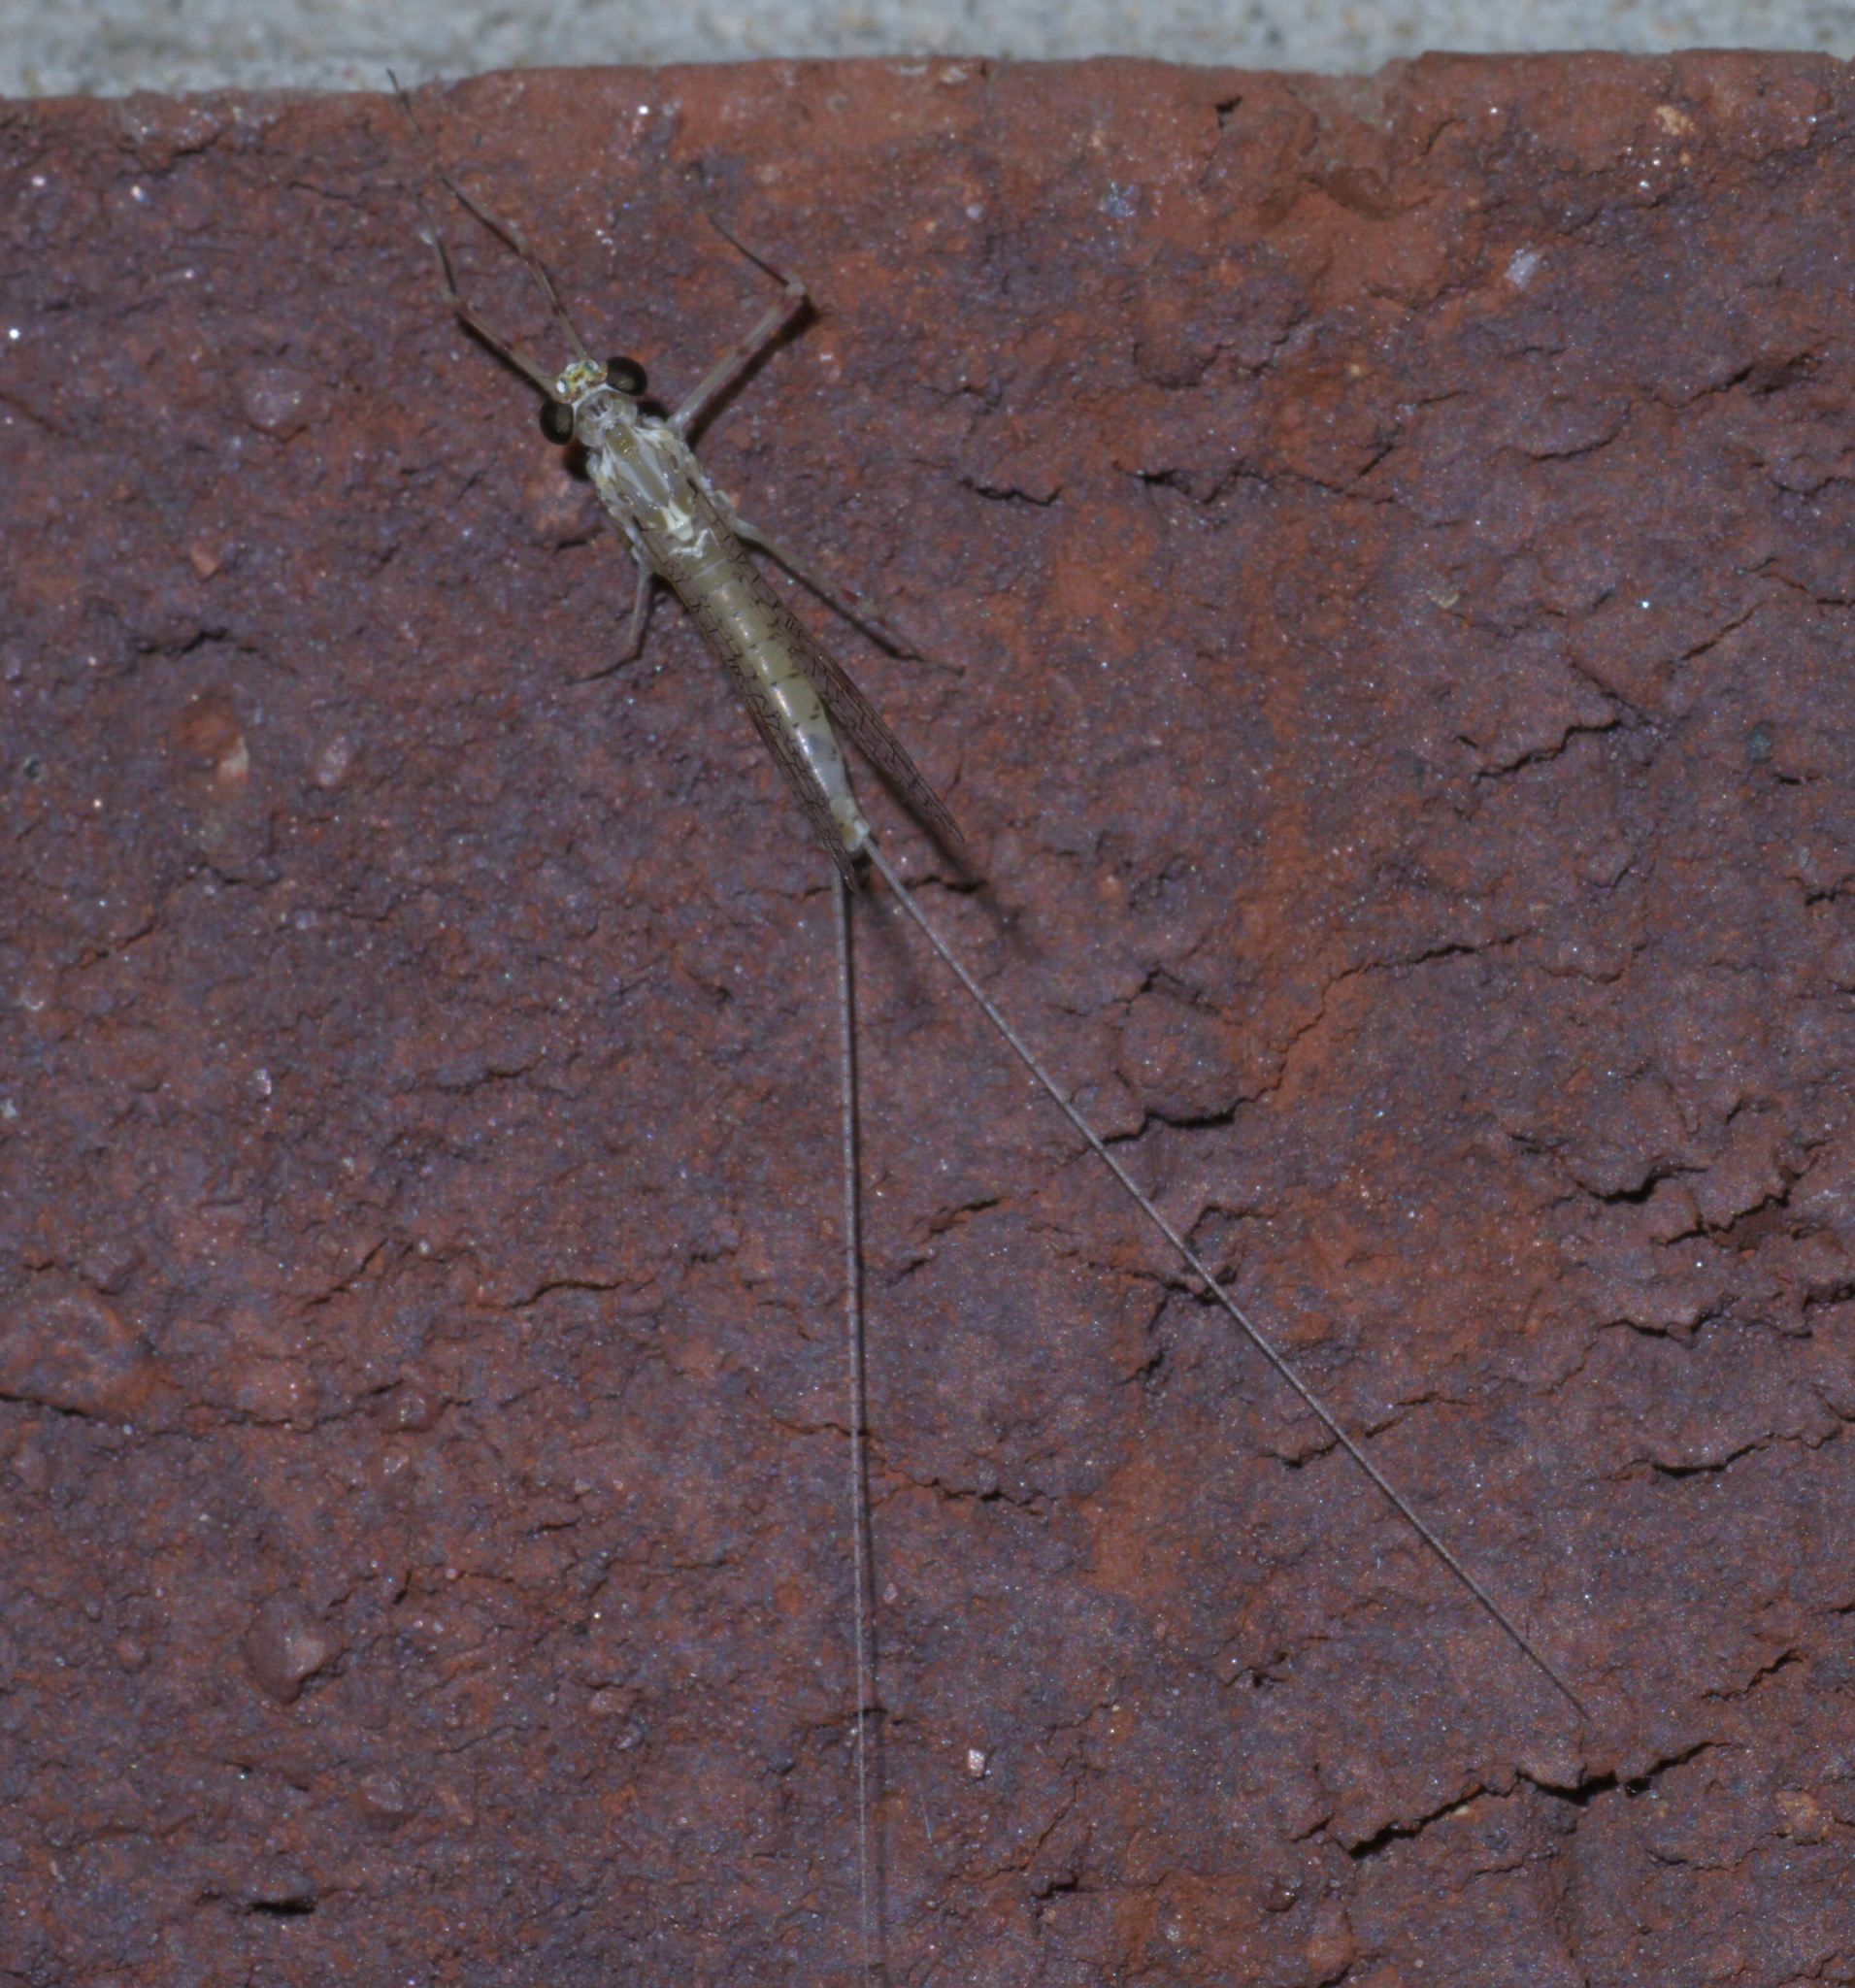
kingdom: Animalia
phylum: Arthropoda
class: Insecta
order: Ephemeroptera
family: Heptageniidae
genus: Stenonema
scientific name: Stenonema femoratum
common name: Dark cahill
